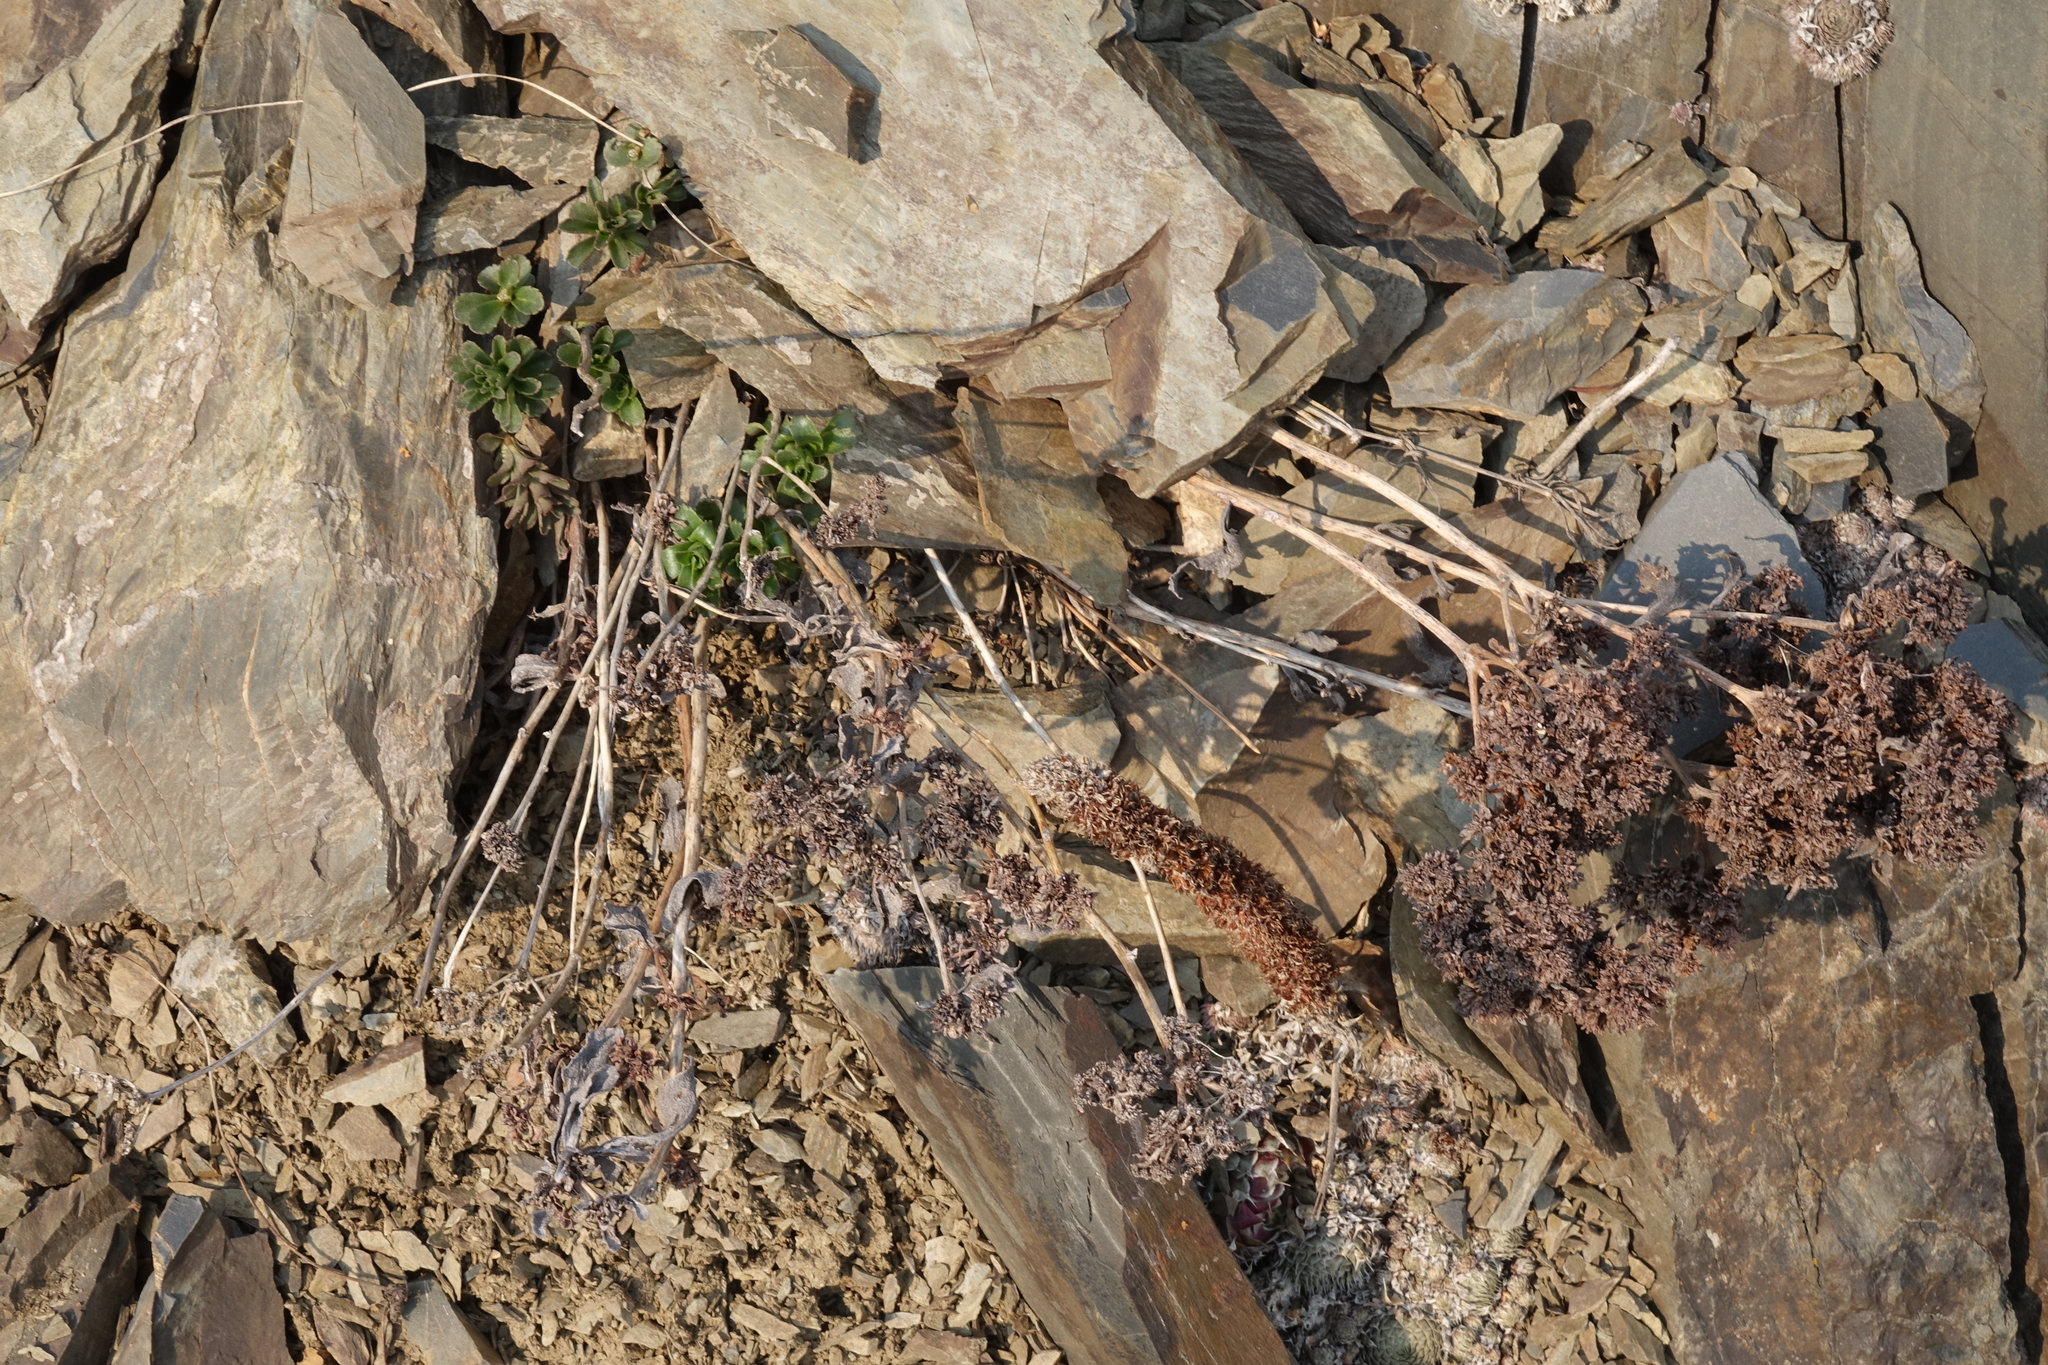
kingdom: Plantae
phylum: Tracheophyta
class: Magnoliopsida
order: Saxifragales
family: Crassulaceae
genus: Phedimus
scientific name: Phedimus aizoon
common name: Orpin aizoon
